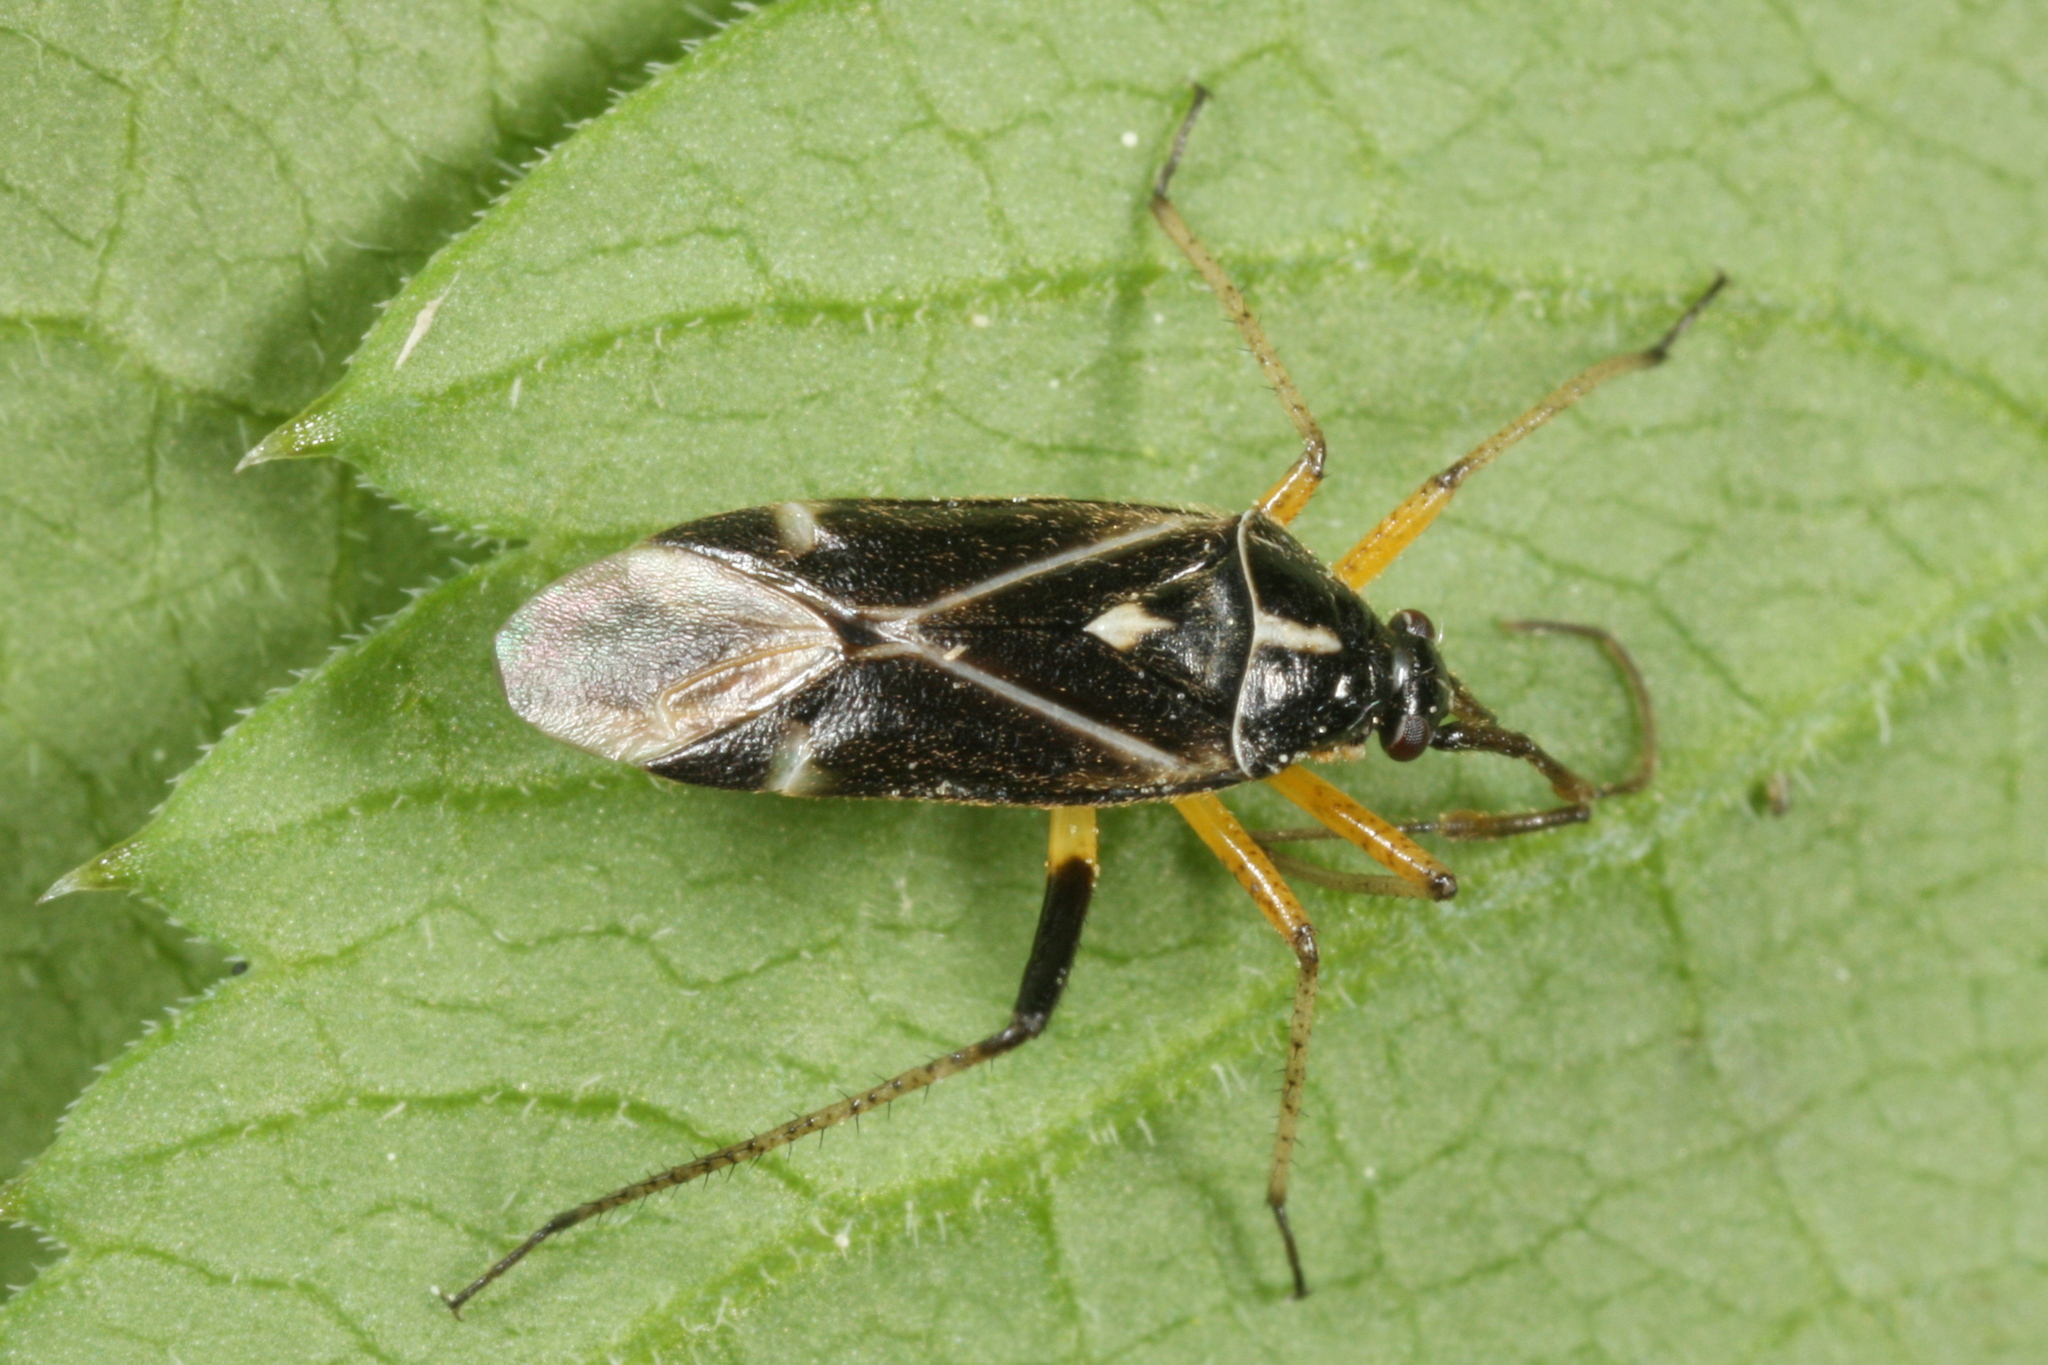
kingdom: Animalia
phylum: Arthropoda
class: Insecta
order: Hemiptera
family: Miridae
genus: Harpocera
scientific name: Harpocera thoracica
